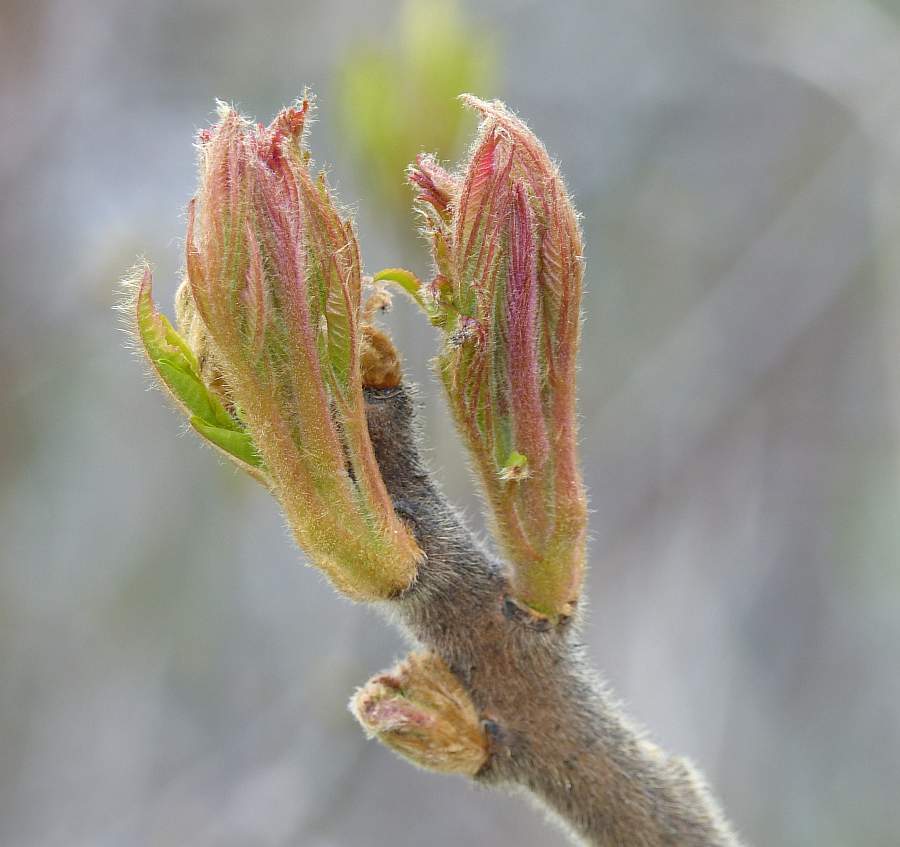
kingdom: Plantae
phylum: Tracheophyta
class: Magnoliopsida
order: Sapindales
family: Anacardiaceae
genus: Rhus
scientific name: Rhus typhina
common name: Staghorn sumac
